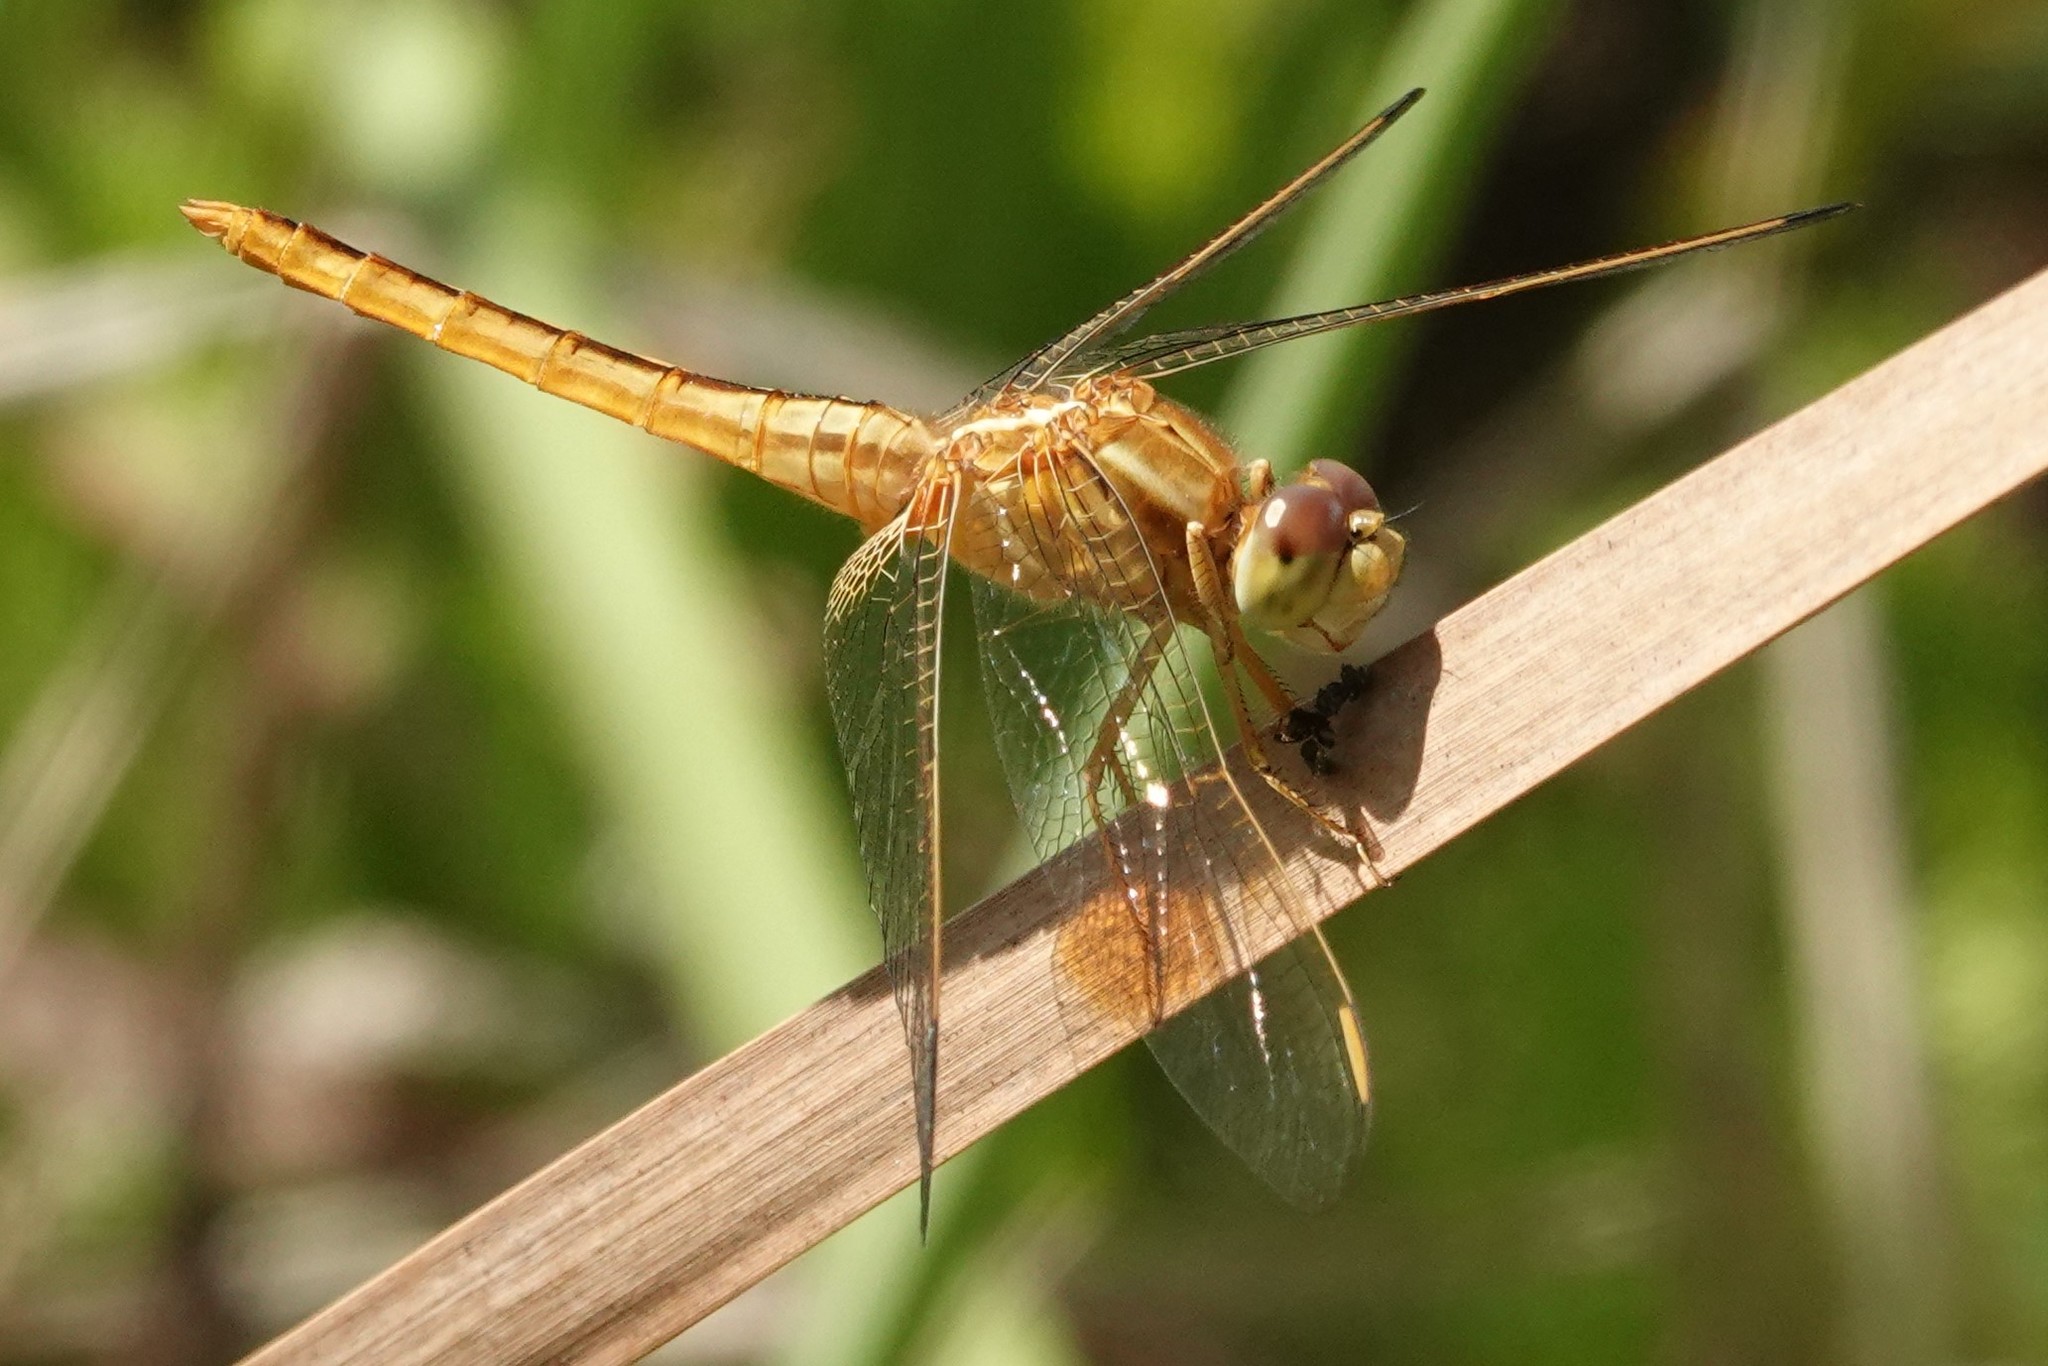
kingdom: Animalia
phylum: Arthropoda
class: Insecta
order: Odonata
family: Libellulidae
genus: Crocothemis
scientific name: Crocothemis servilia
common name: Scarlet skimmer
